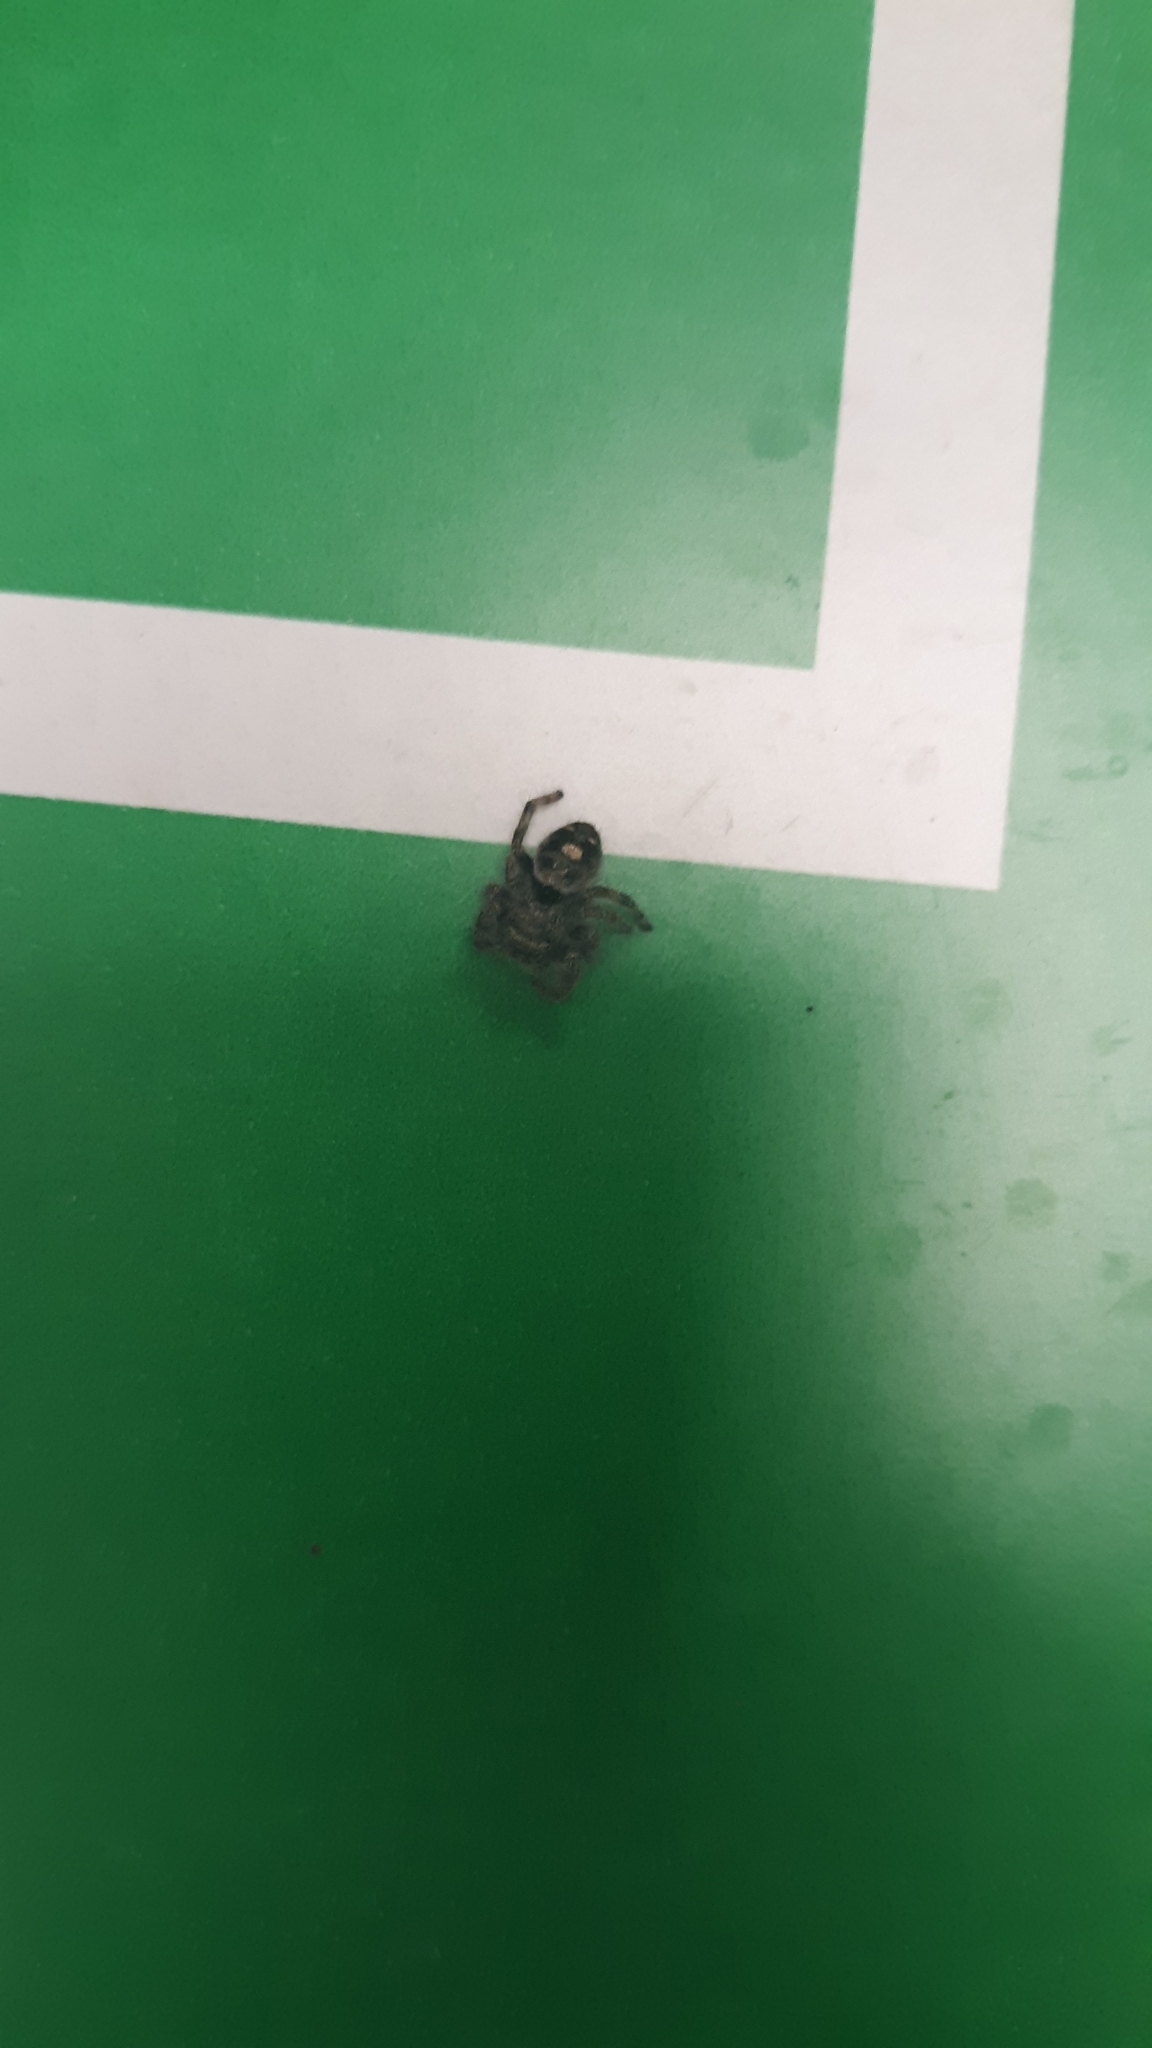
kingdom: Animalia
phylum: Arthropoda
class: Arachnida
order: Araneae
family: Salticidae
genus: Phidippus
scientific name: Phidippus audax
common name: Bold jumper
